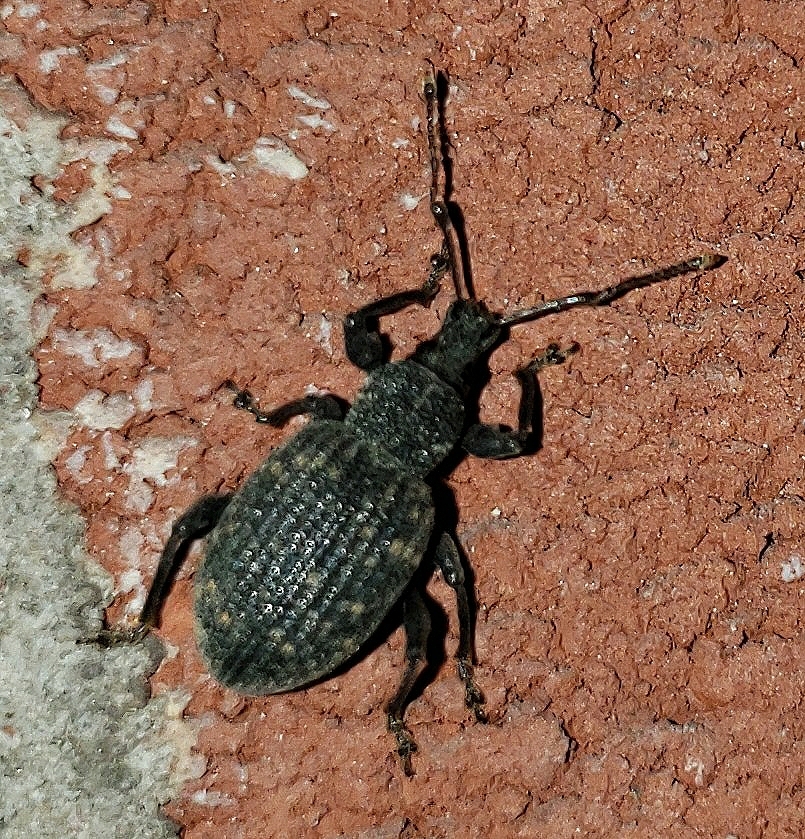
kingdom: Animalia
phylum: Arthropoda
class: Insecta
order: Coleoptera
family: Curculionidae
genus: Otiorhynchus
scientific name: Otiorhynchus sulcatus
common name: Black vine weevil
